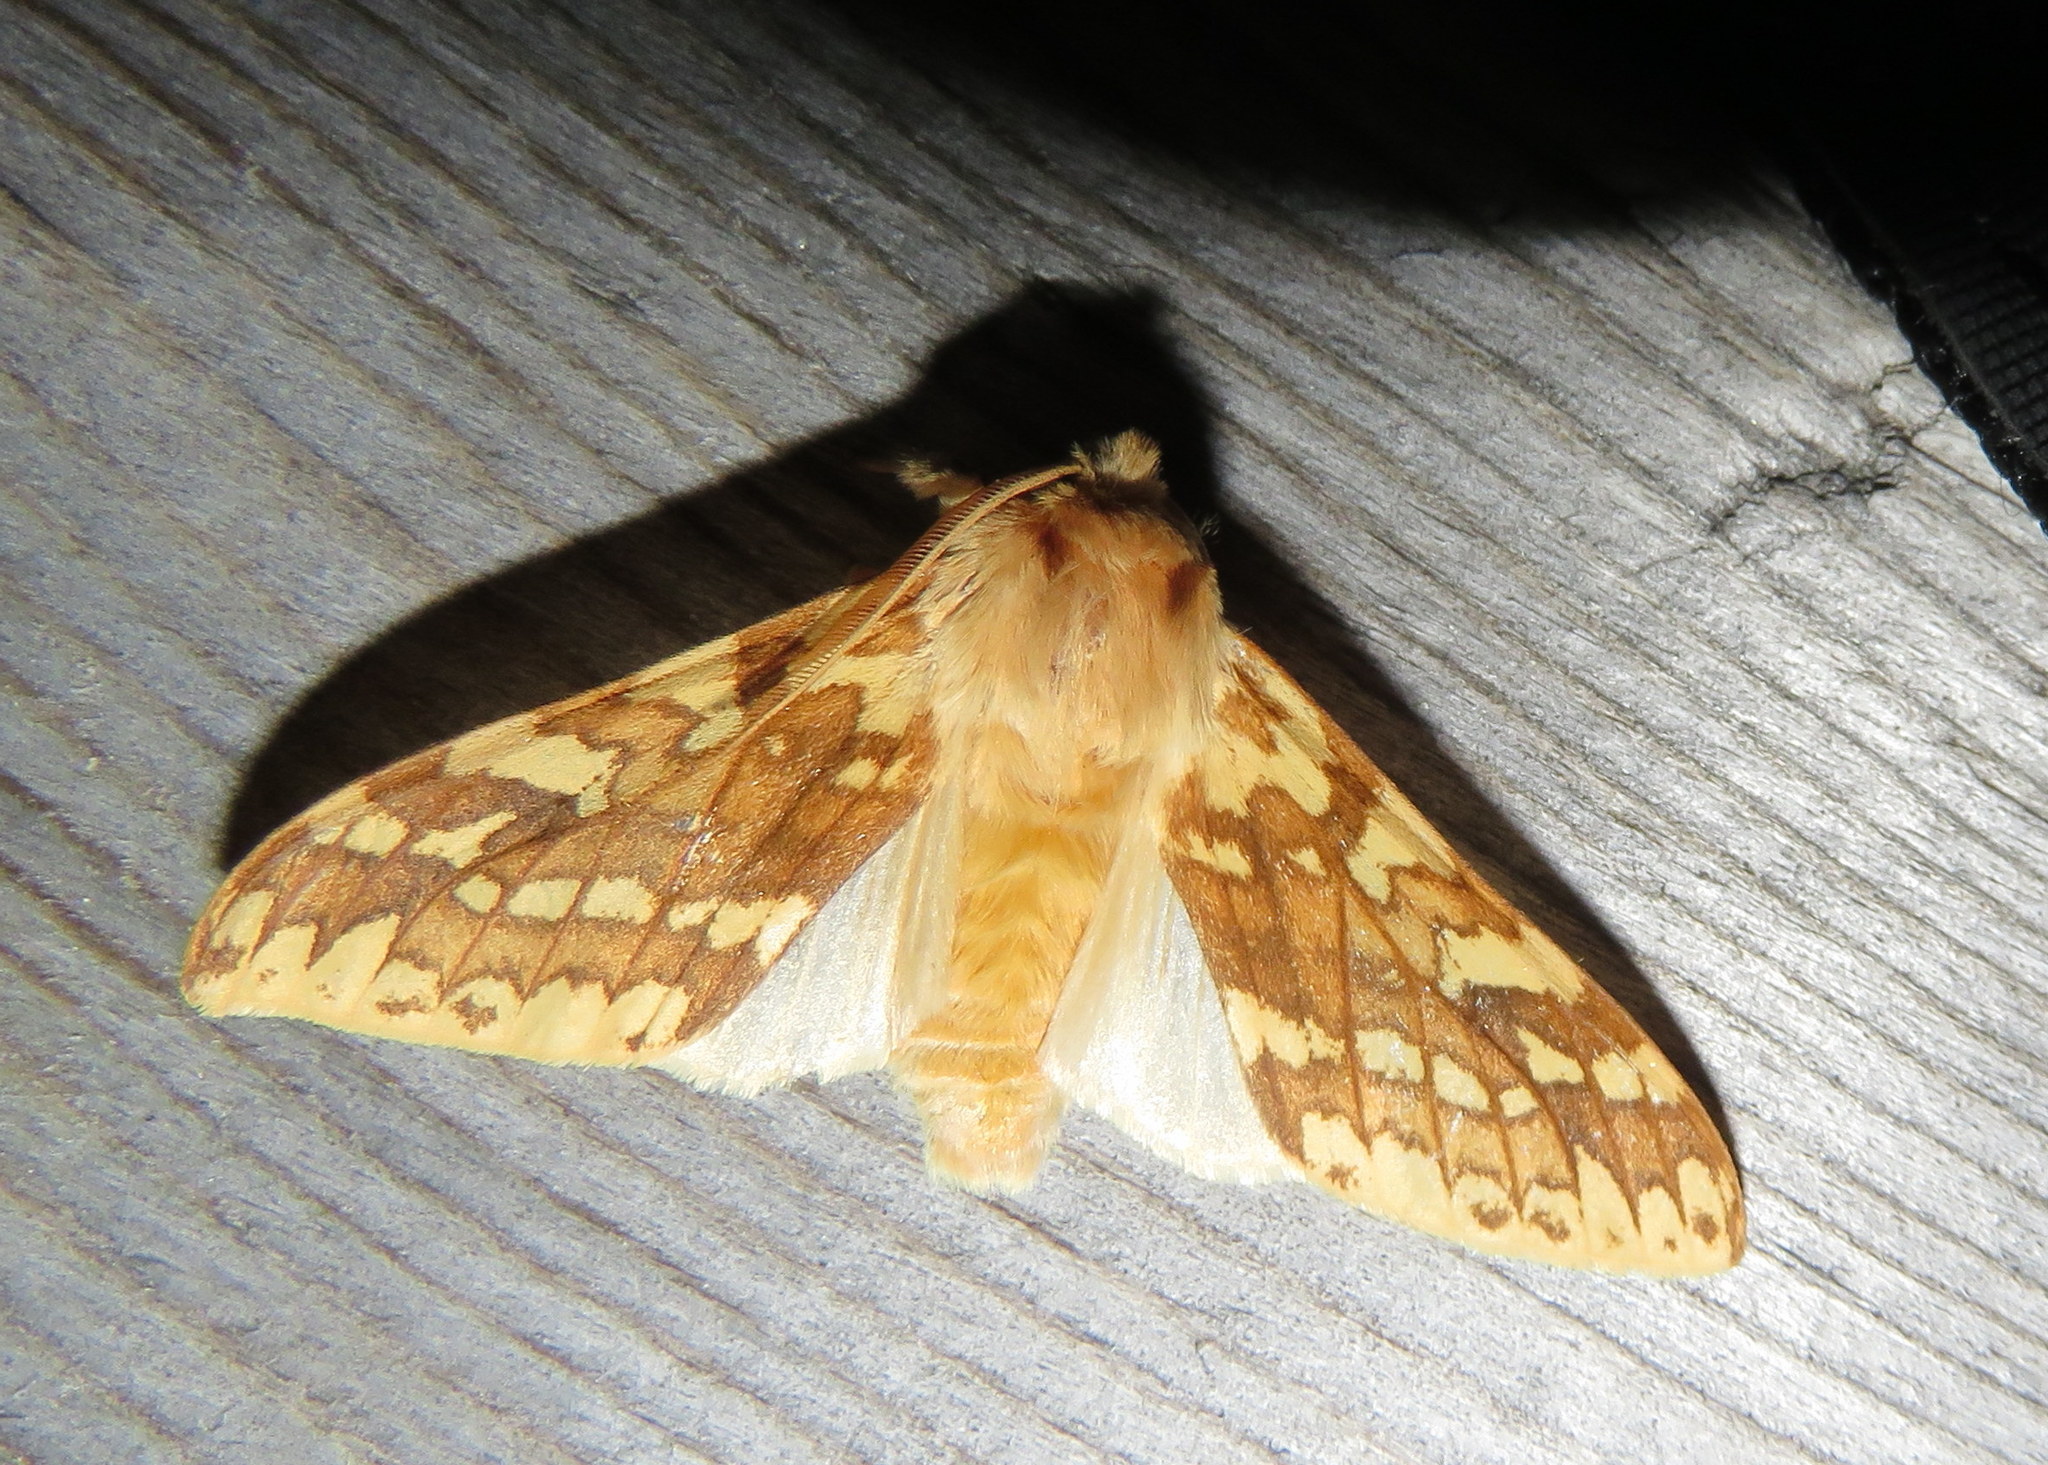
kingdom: Animalia
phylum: Arthropoda
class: Insecta
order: Lepidoptera
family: Erebidae
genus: Lophocampa
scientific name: Lophocampa maculata
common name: Spotted tussock moth
